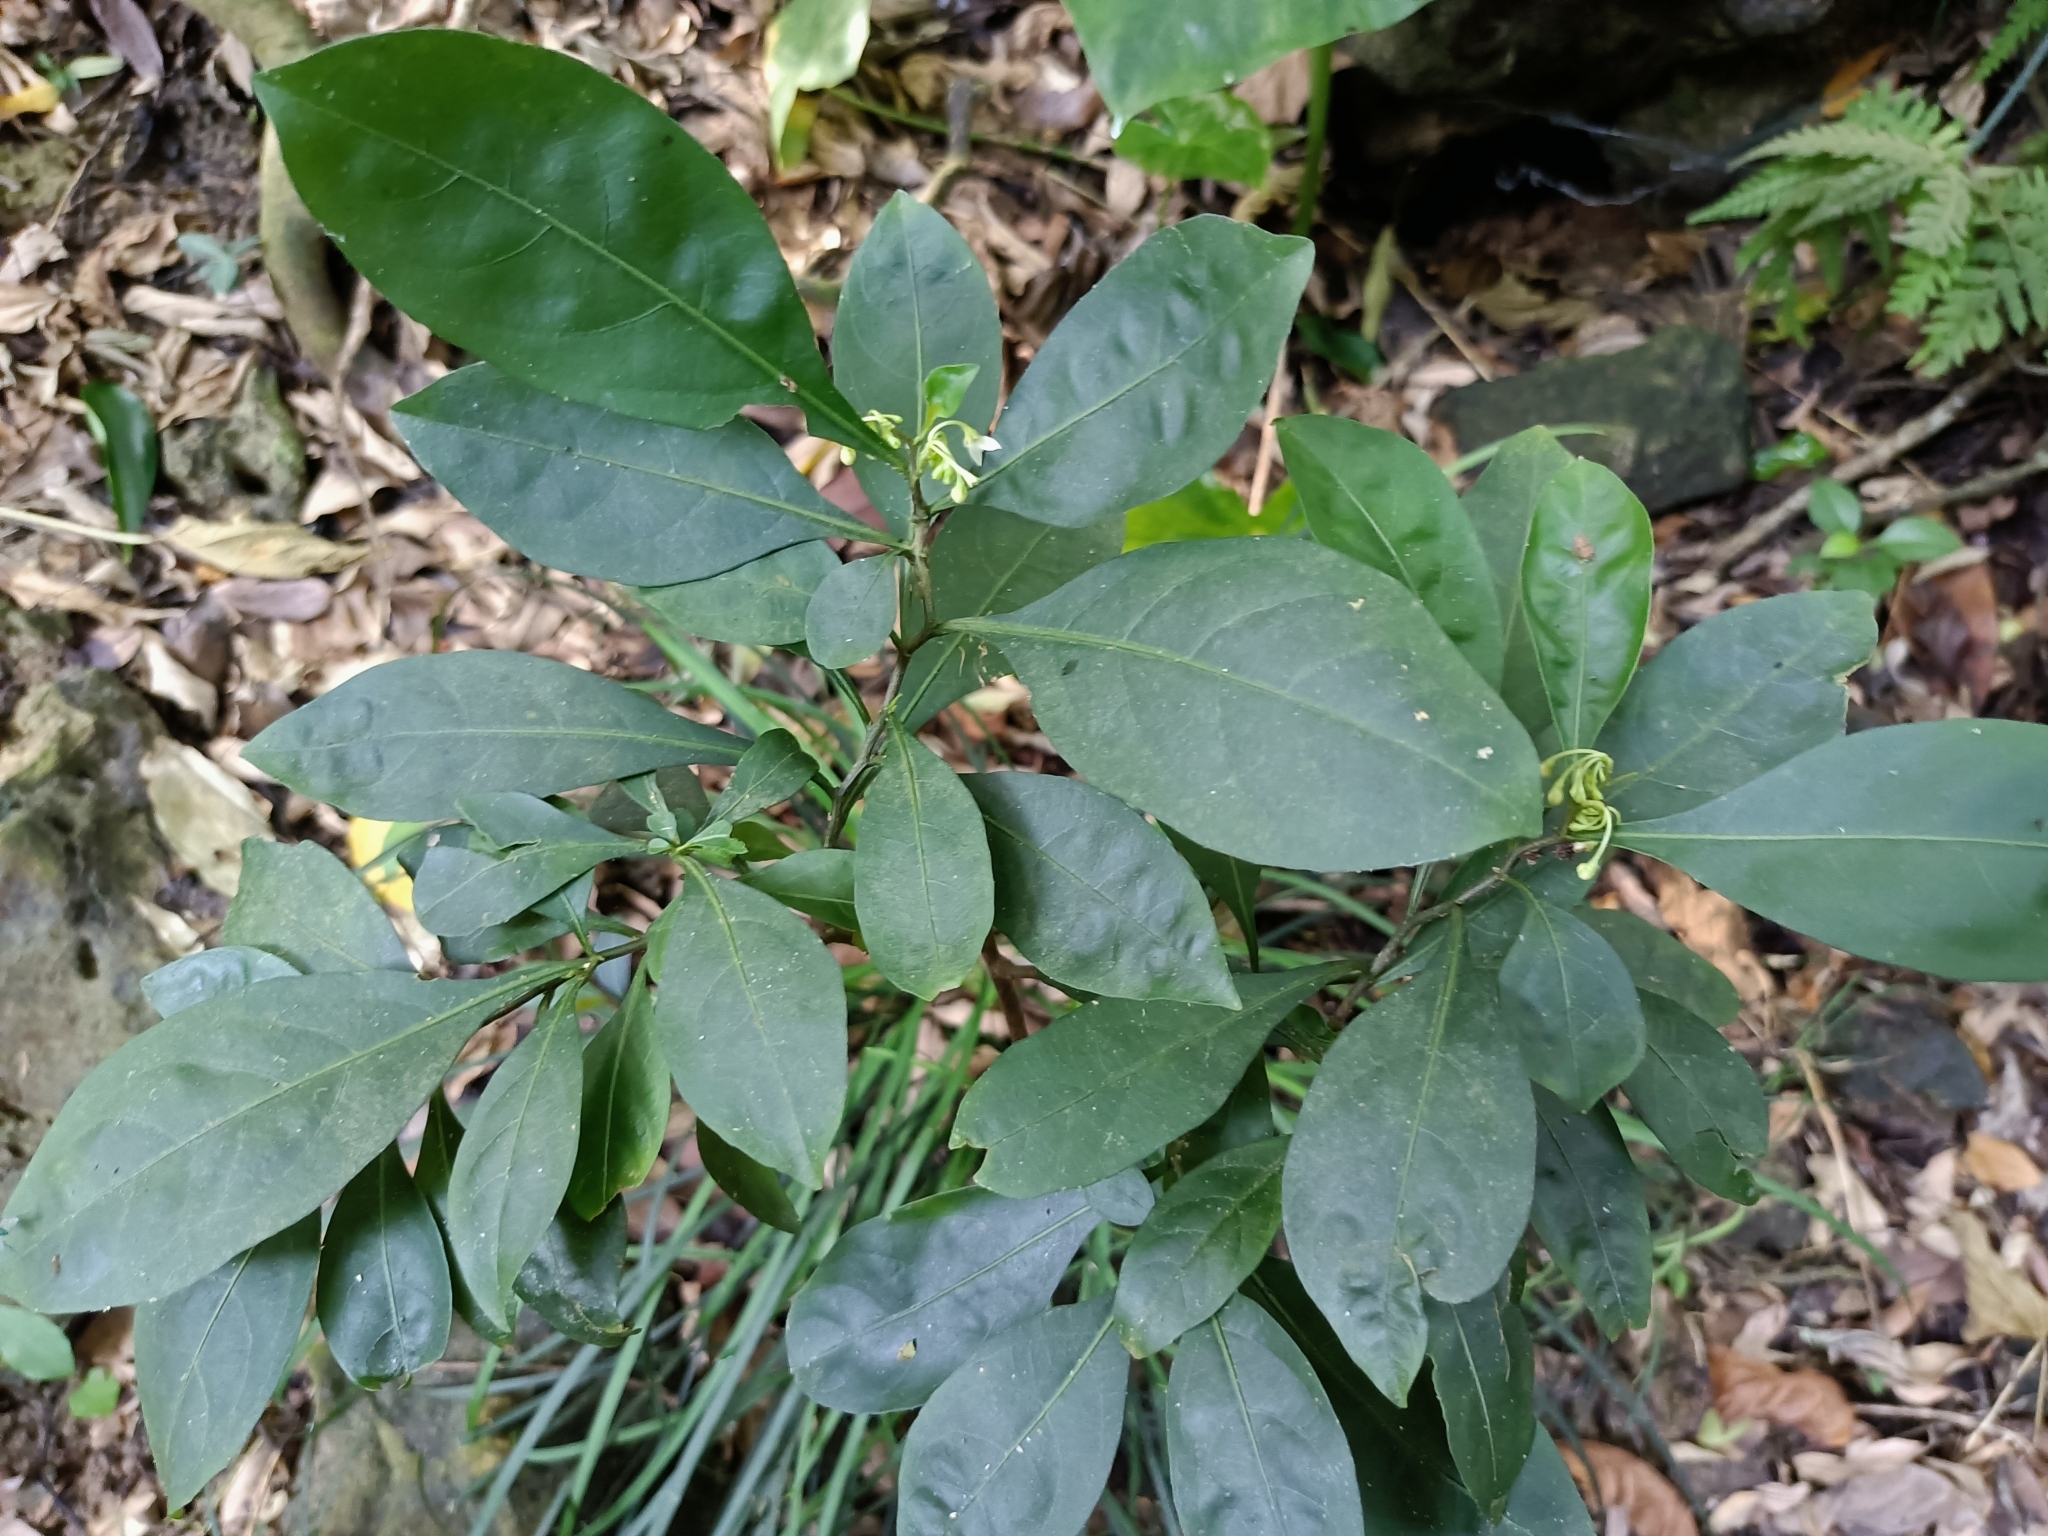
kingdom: Plantae
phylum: Tracheophyta
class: Magnoliopsida
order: Solanales
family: Solanaceae
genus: Solanum
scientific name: Solanum diphyllum
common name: Twoleaf nightshade
